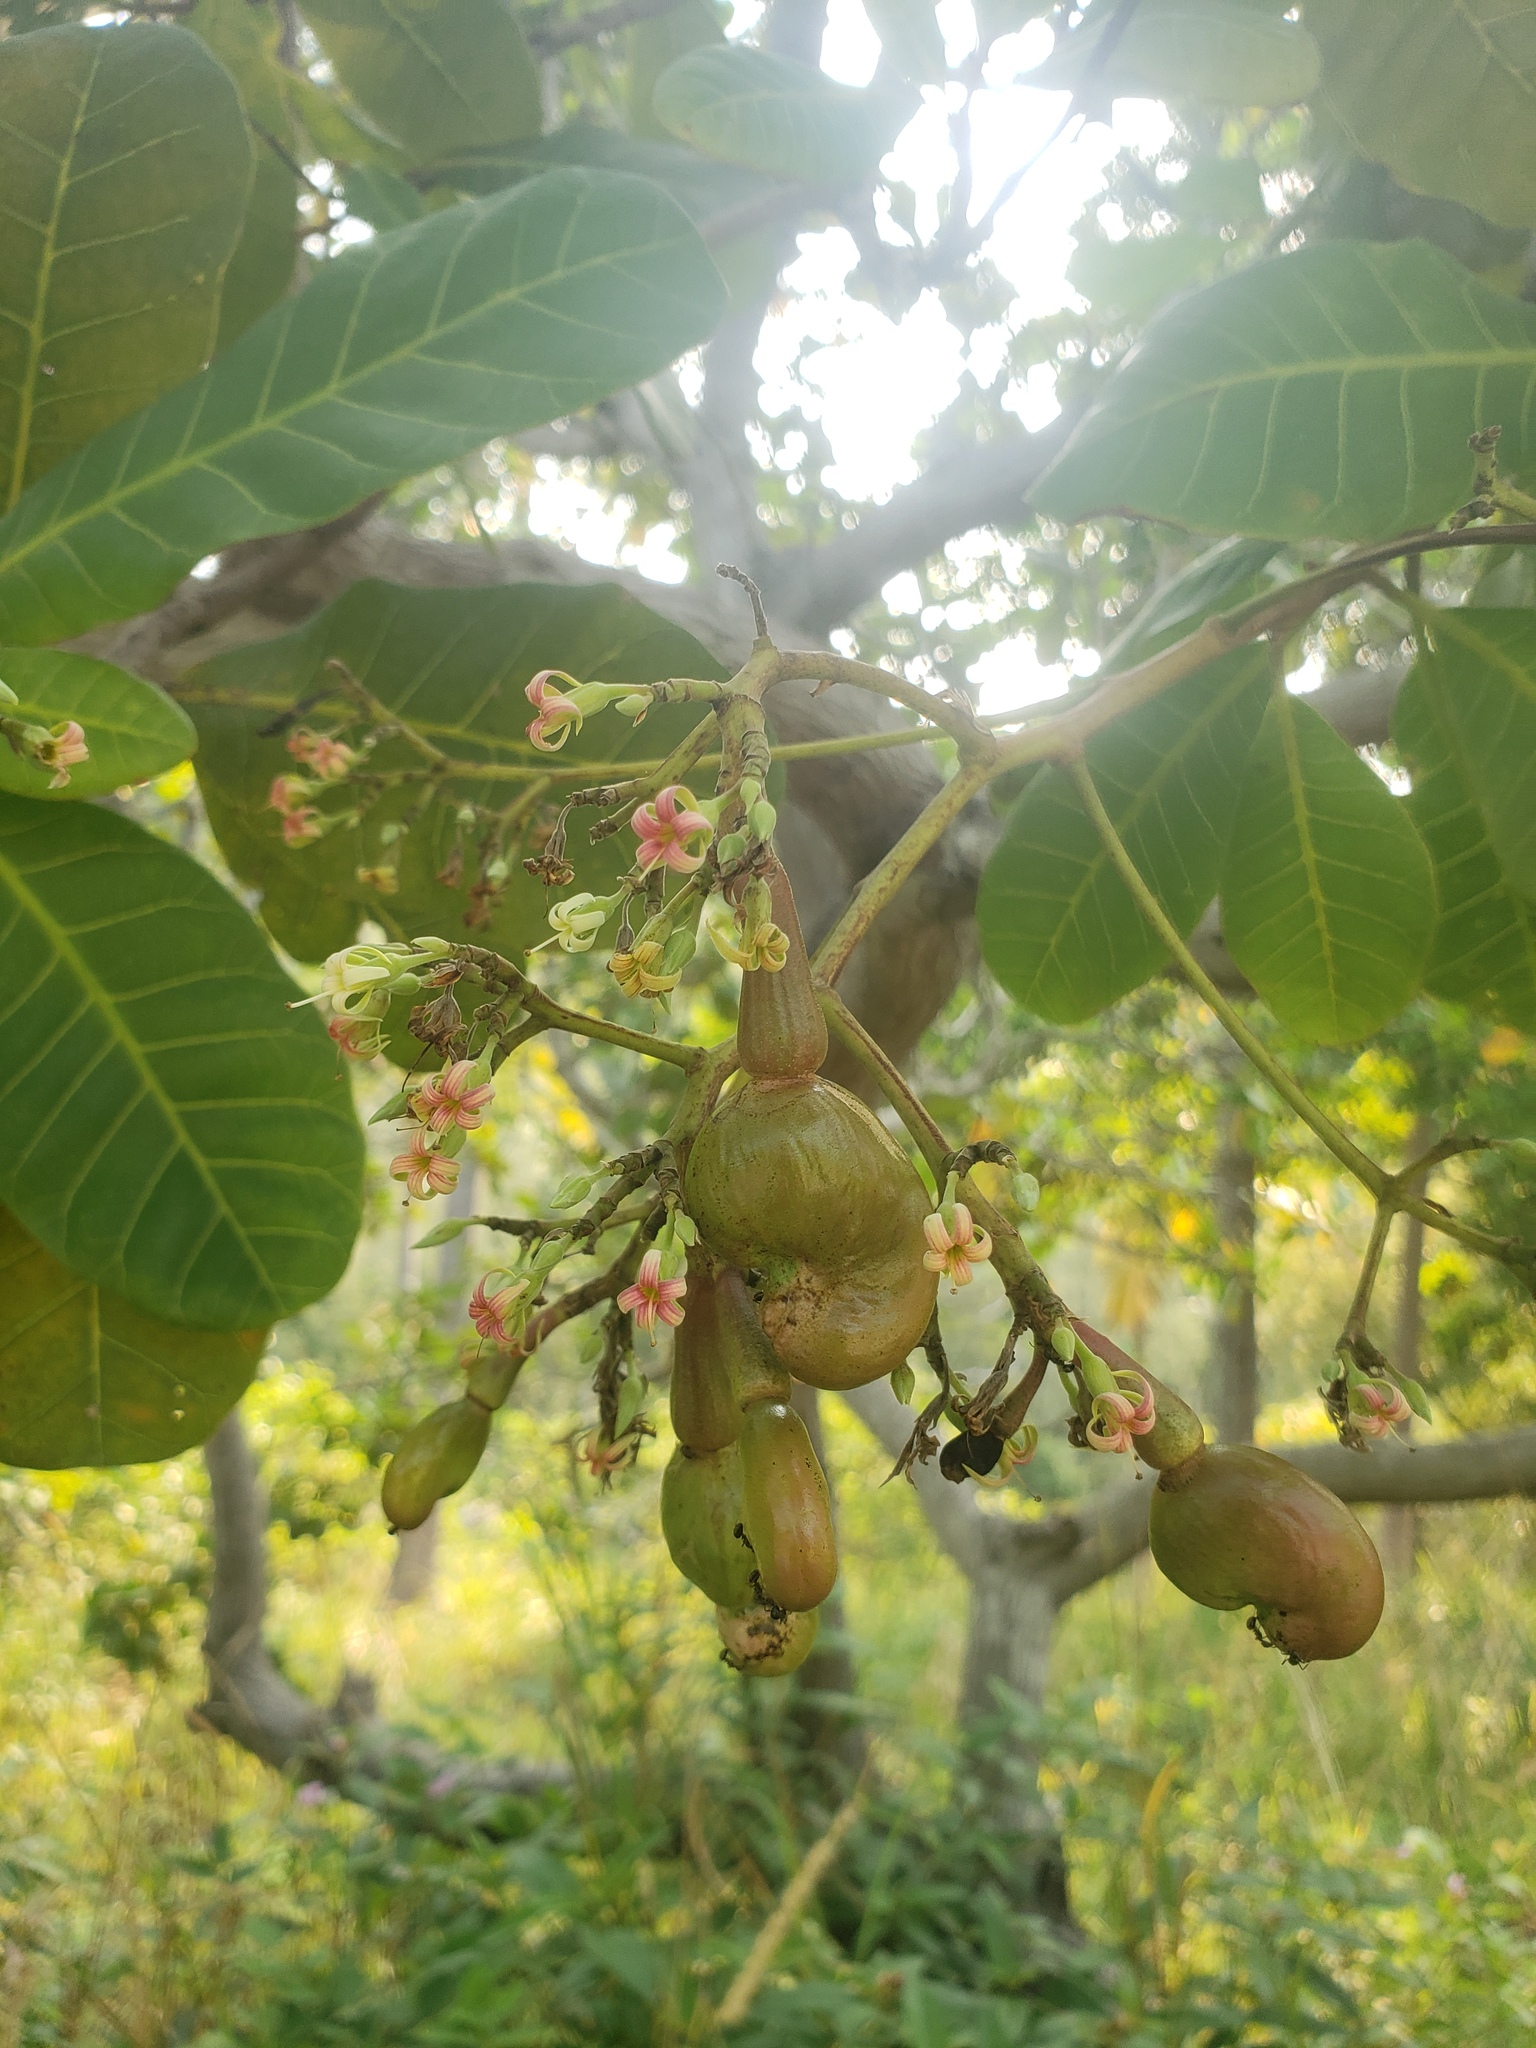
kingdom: Plantae
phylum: Tracheophyta
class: Magnoliopsida
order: Sapindales
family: Anacardiaceae
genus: Anacardium
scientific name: Anacardium occidentale
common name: Cashew
